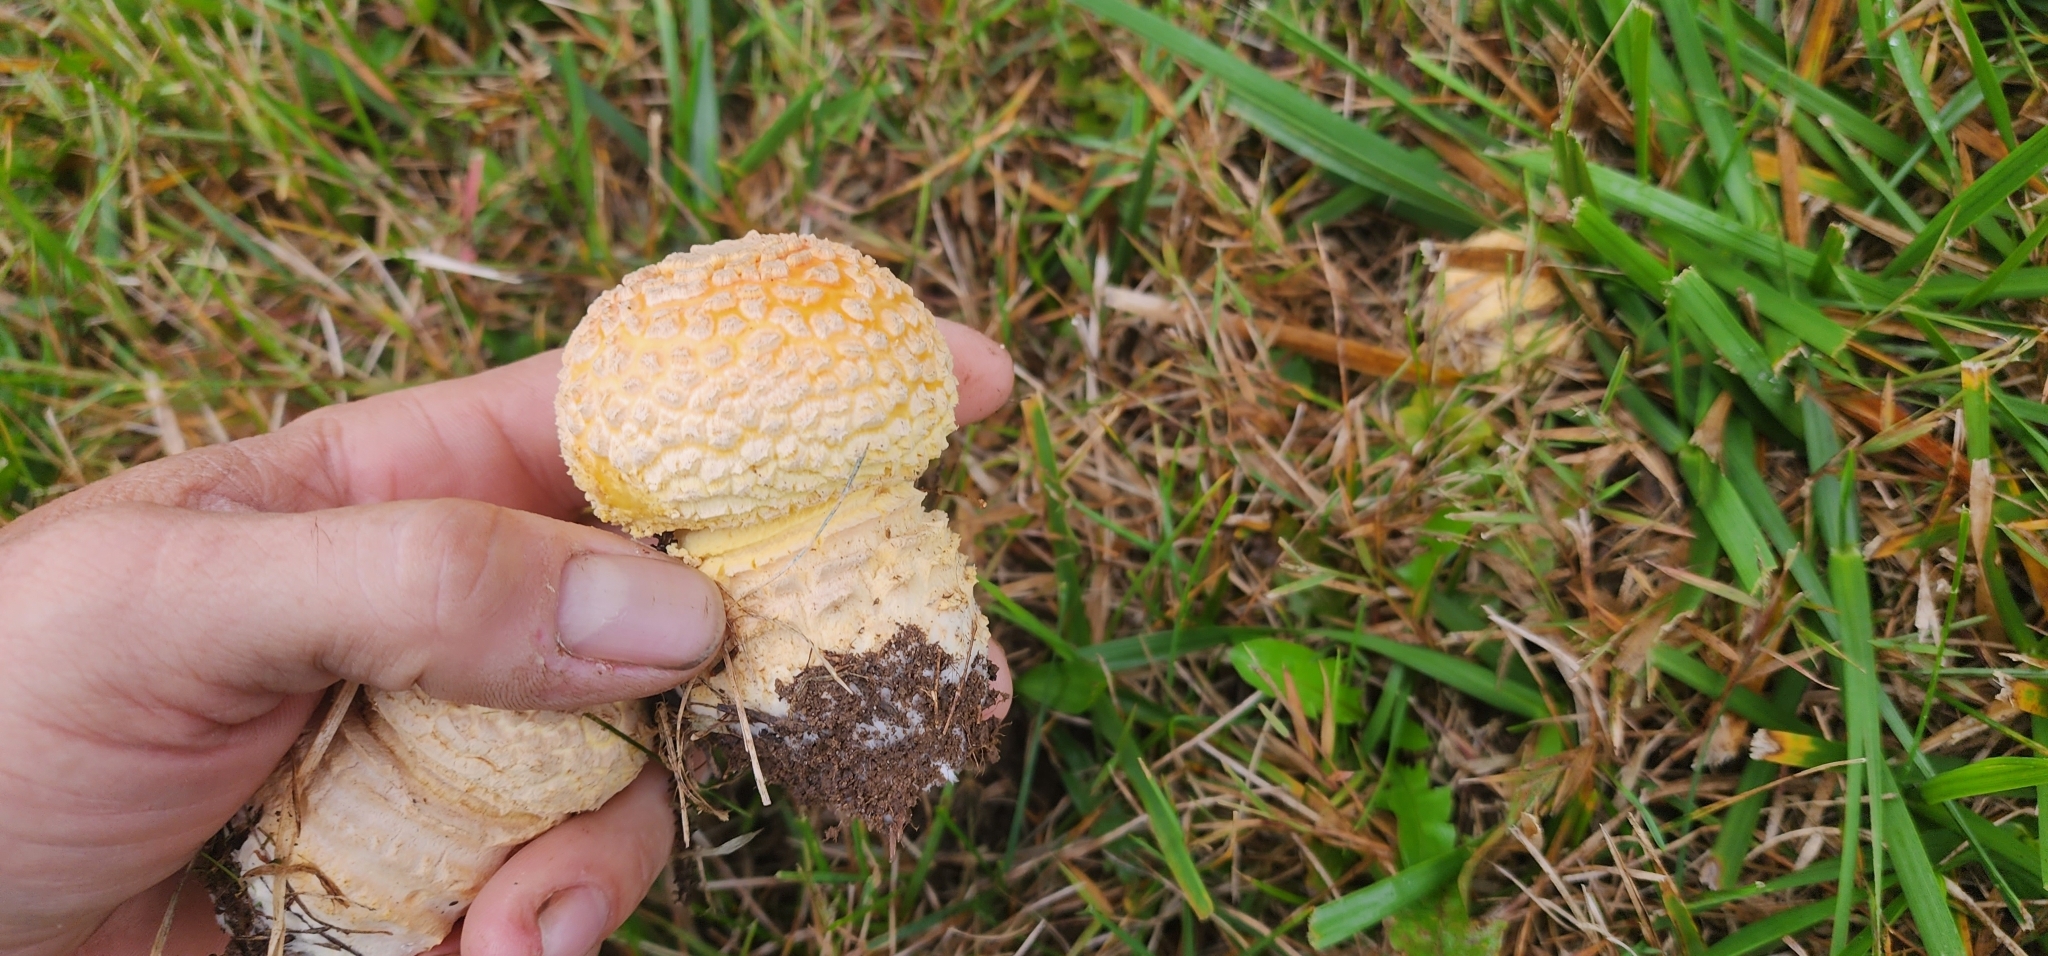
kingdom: Fungi
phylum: Basidiomycota
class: Agaricomycetes
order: Agaricales
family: Amanitaceae
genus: Amanita
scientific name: Amanita muscaria
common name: Fly agaric
